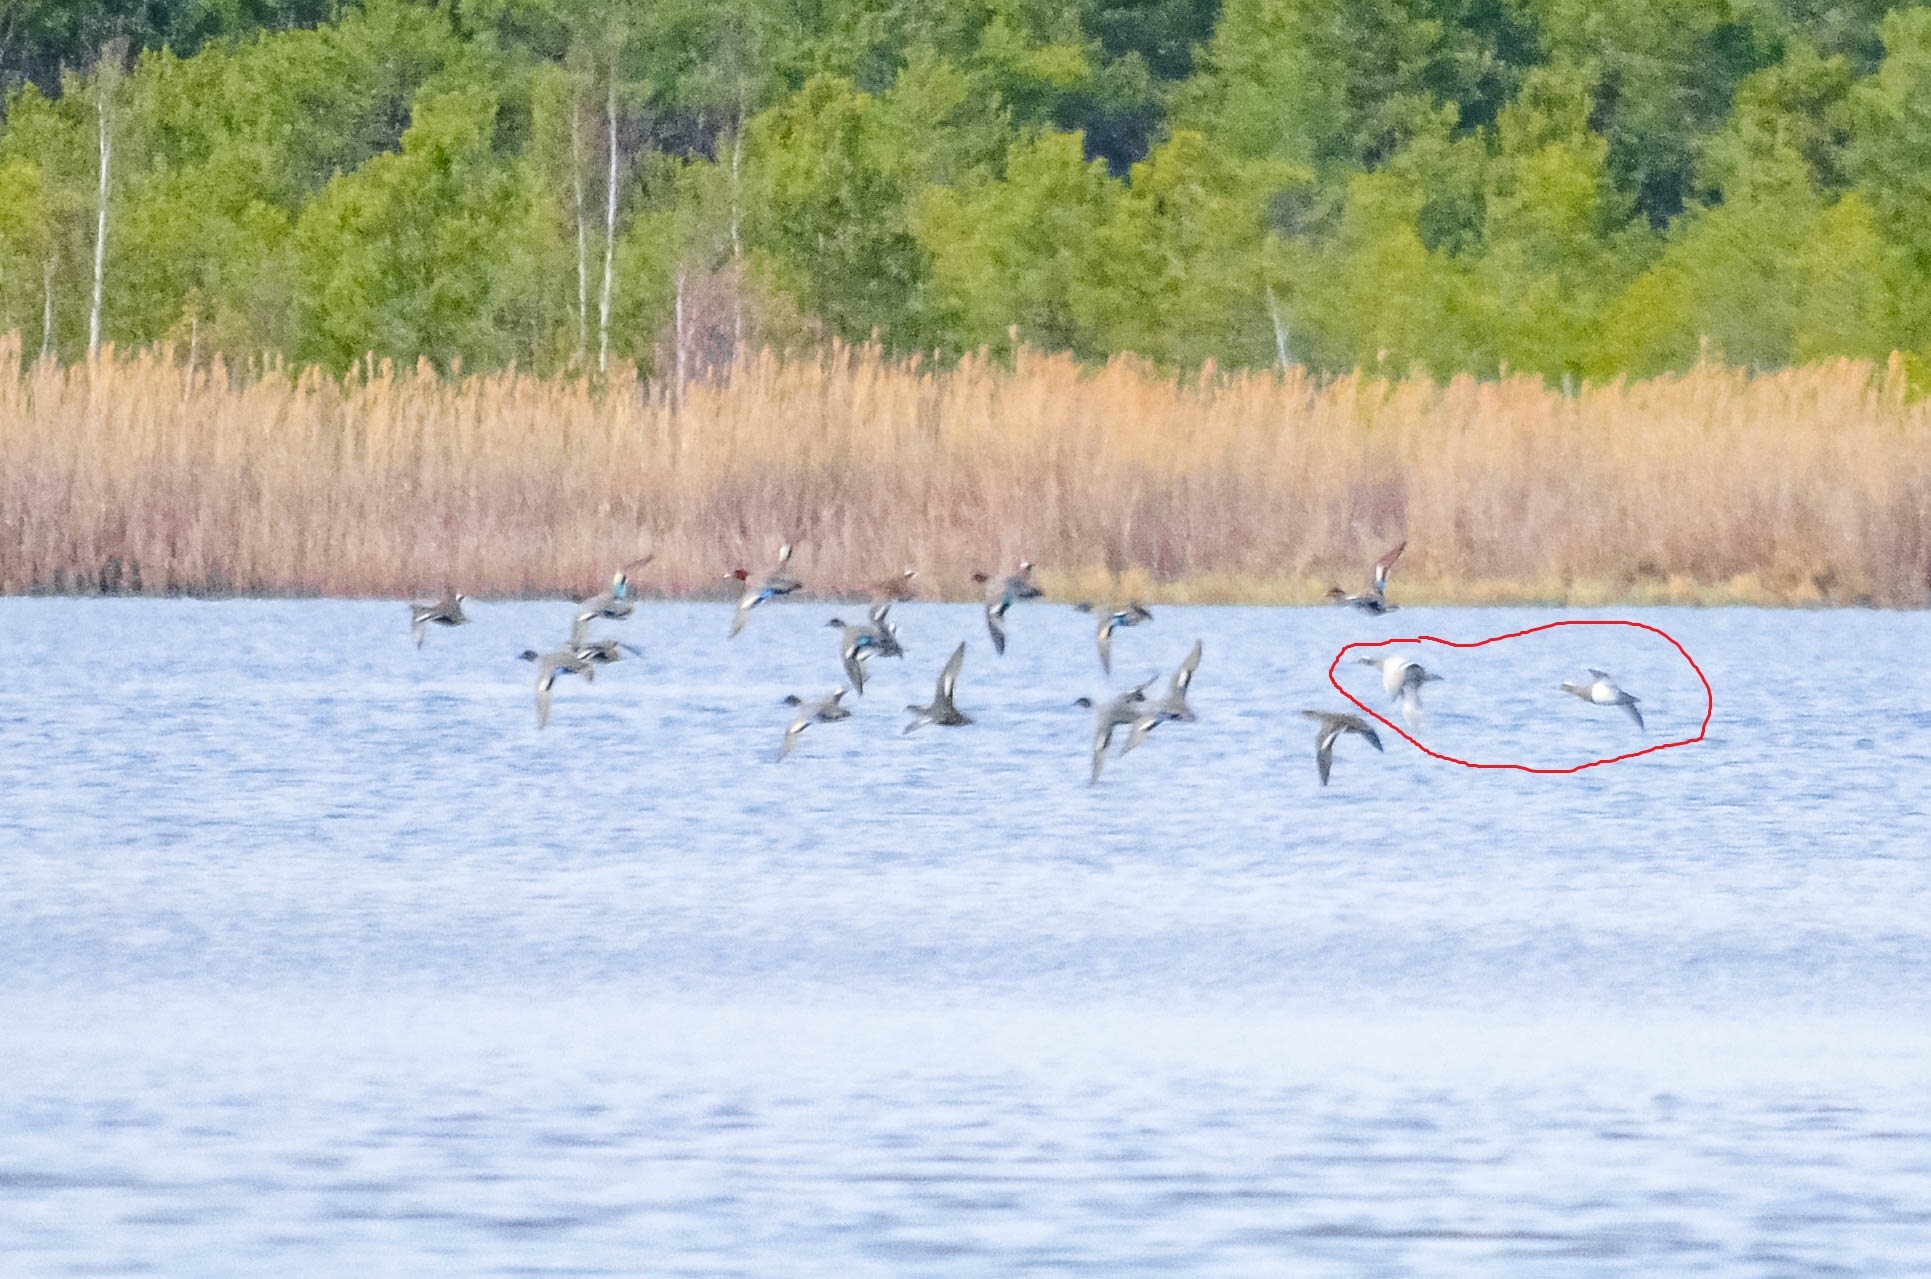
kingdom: Animalia
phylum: Chordata
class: Aves
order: Anseriformes
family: Anatidae
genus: Spatula
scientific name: Spatula querquedula
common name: Garganey
